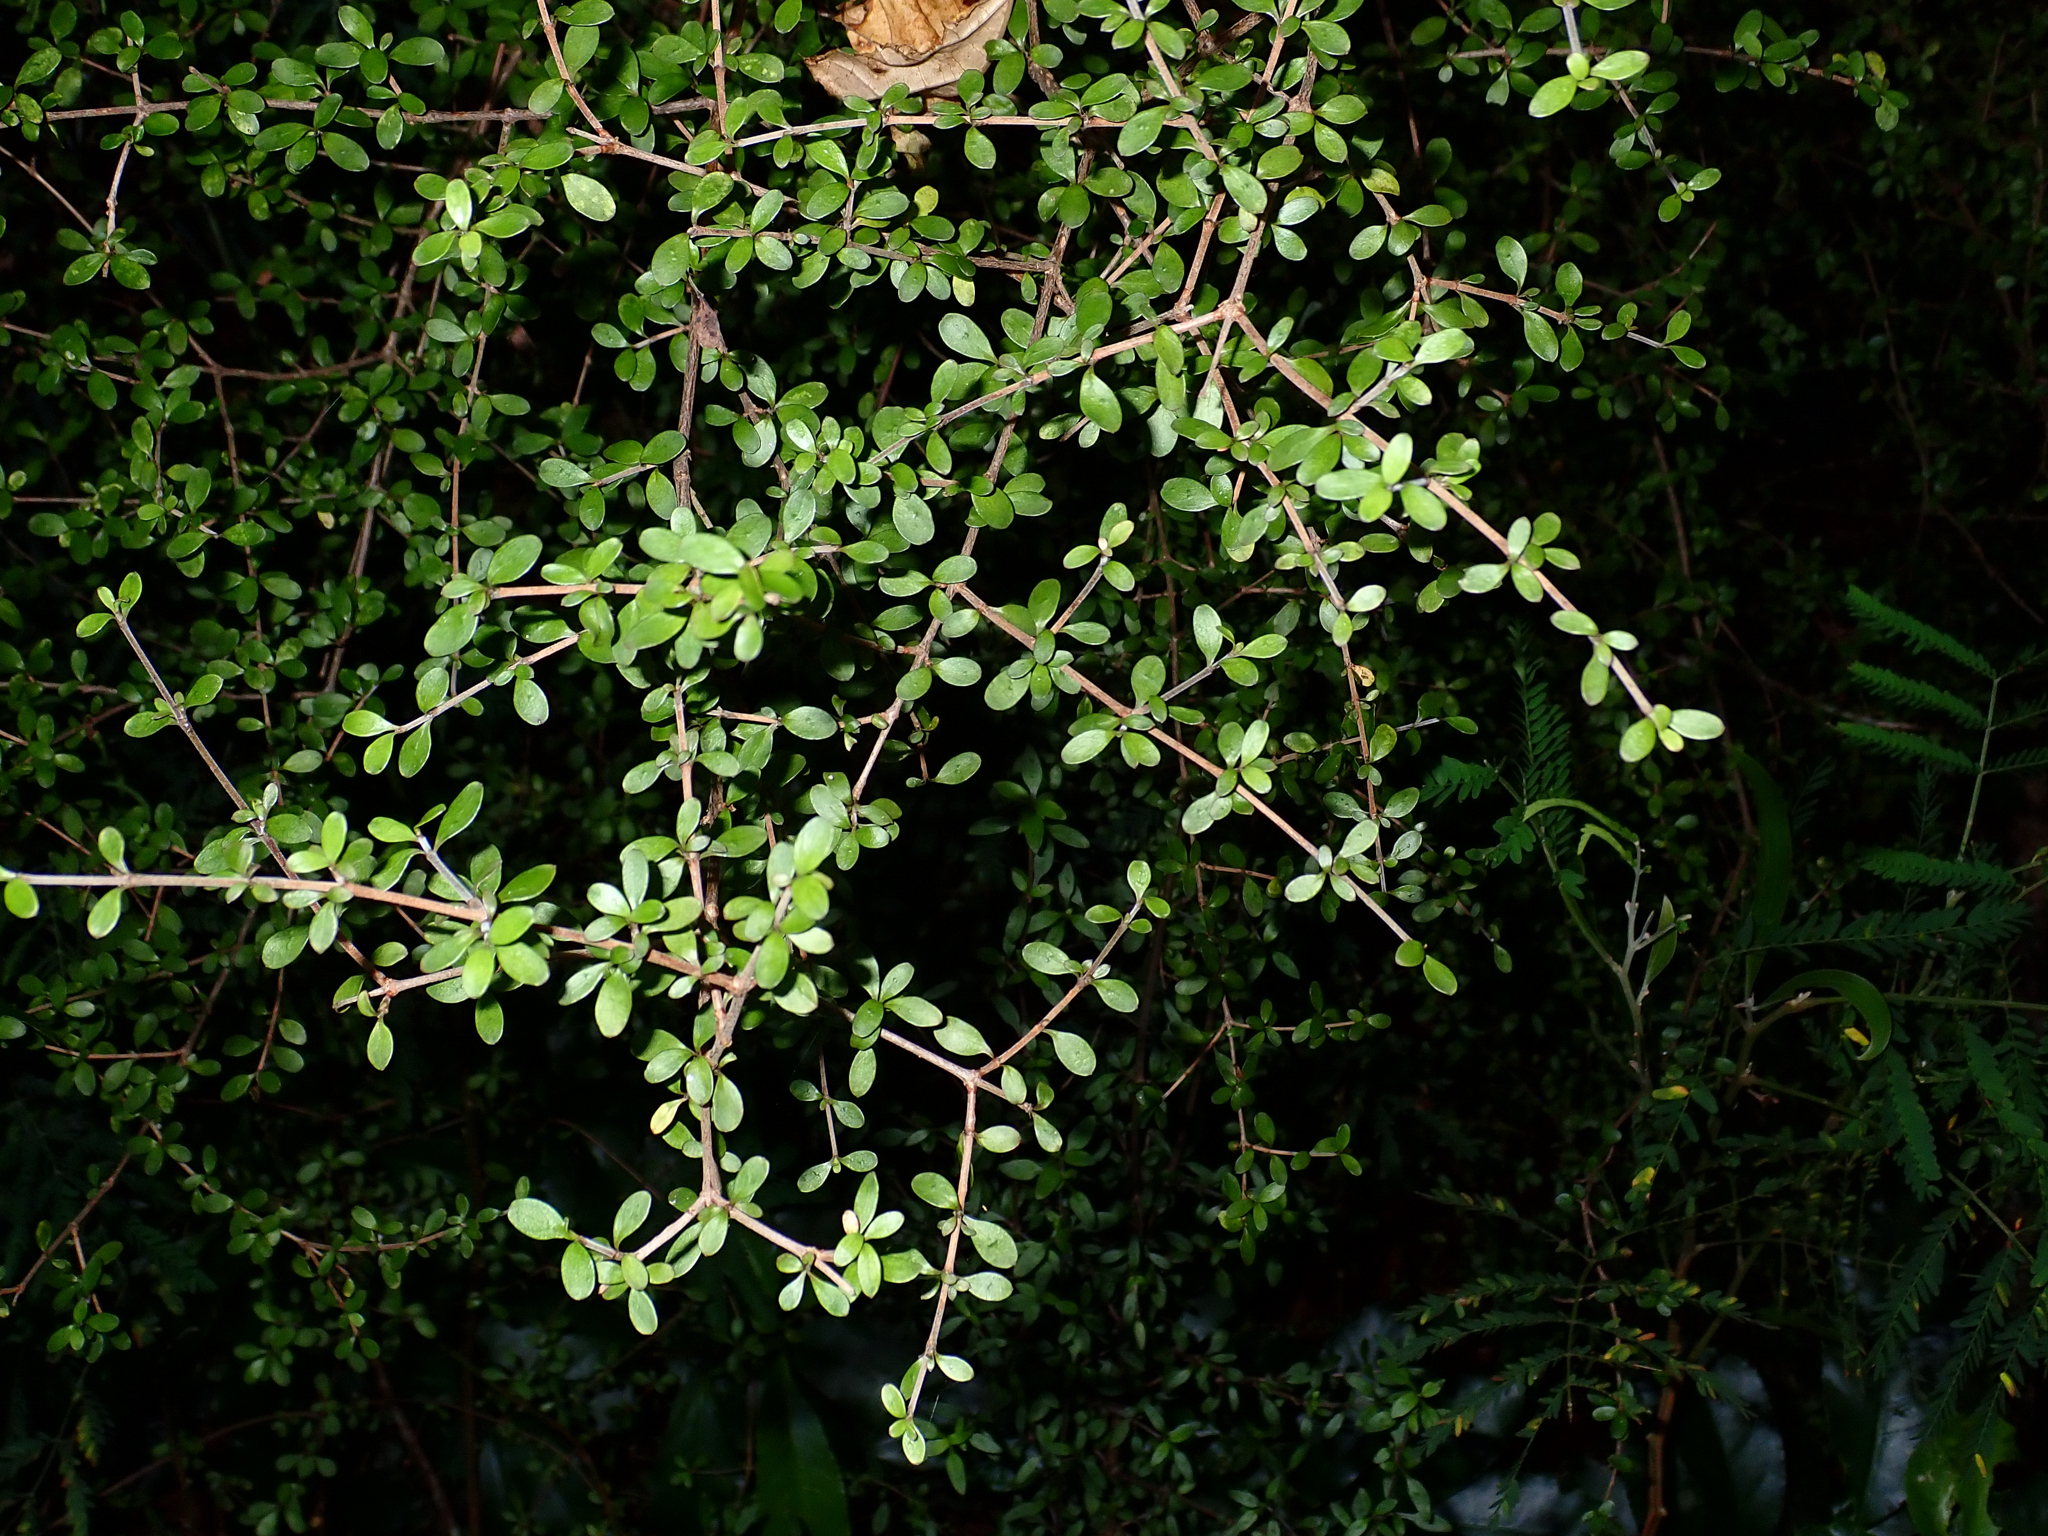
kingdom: Plantae
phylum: Tracheophyta
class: Magnoliopsida
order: Gentianales
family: Rubiaceae
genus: Coprosma
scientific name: Coprosma dumosa
